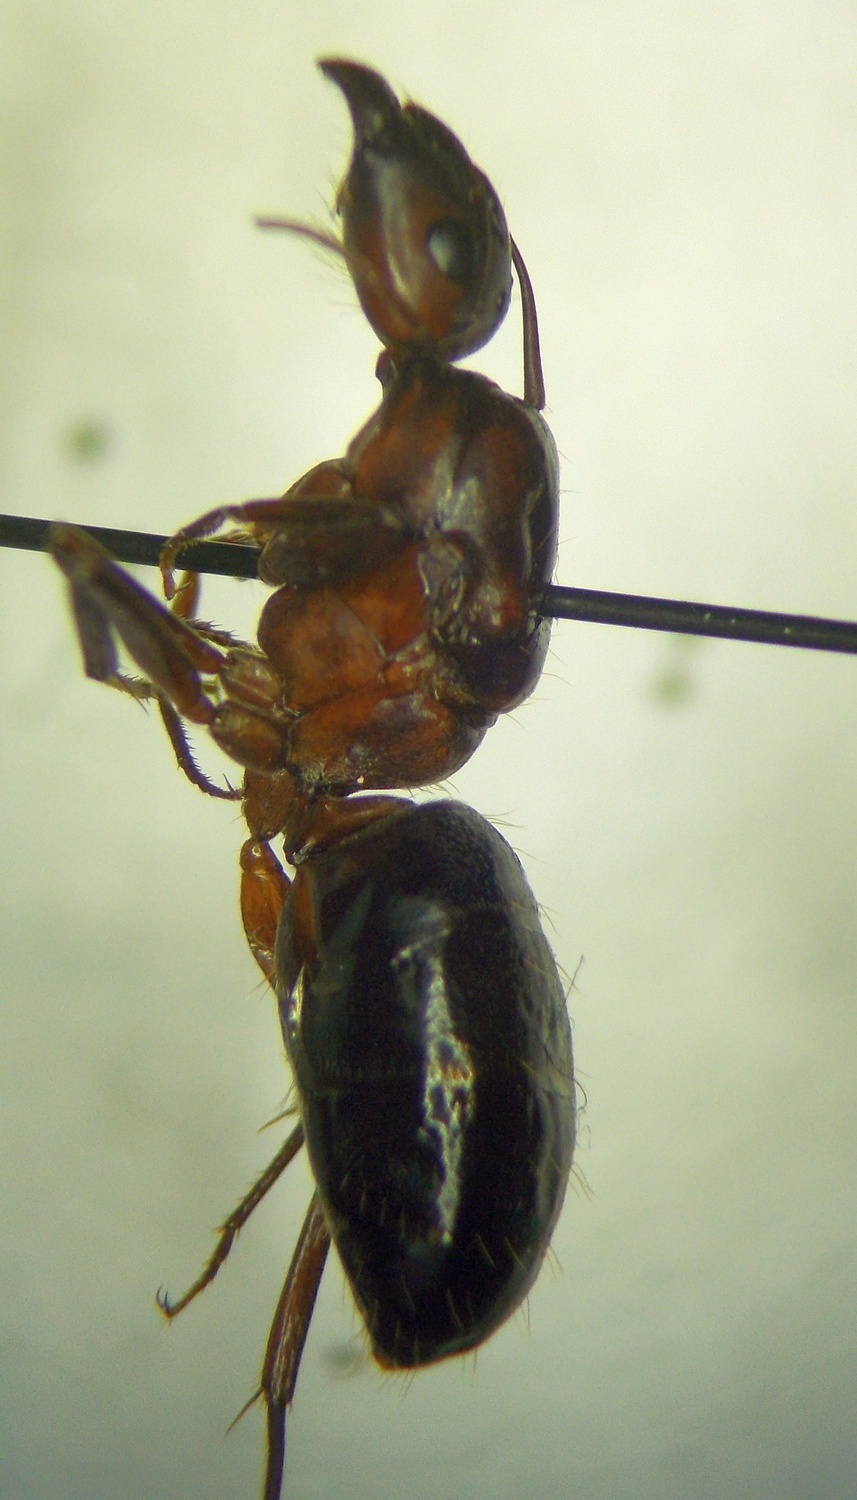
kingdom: Animalia
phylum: Arthropoda
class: Insecta
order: Hymenoptera
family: Formicidae
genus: Camponotus
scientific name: Camponotus turkestanicus
